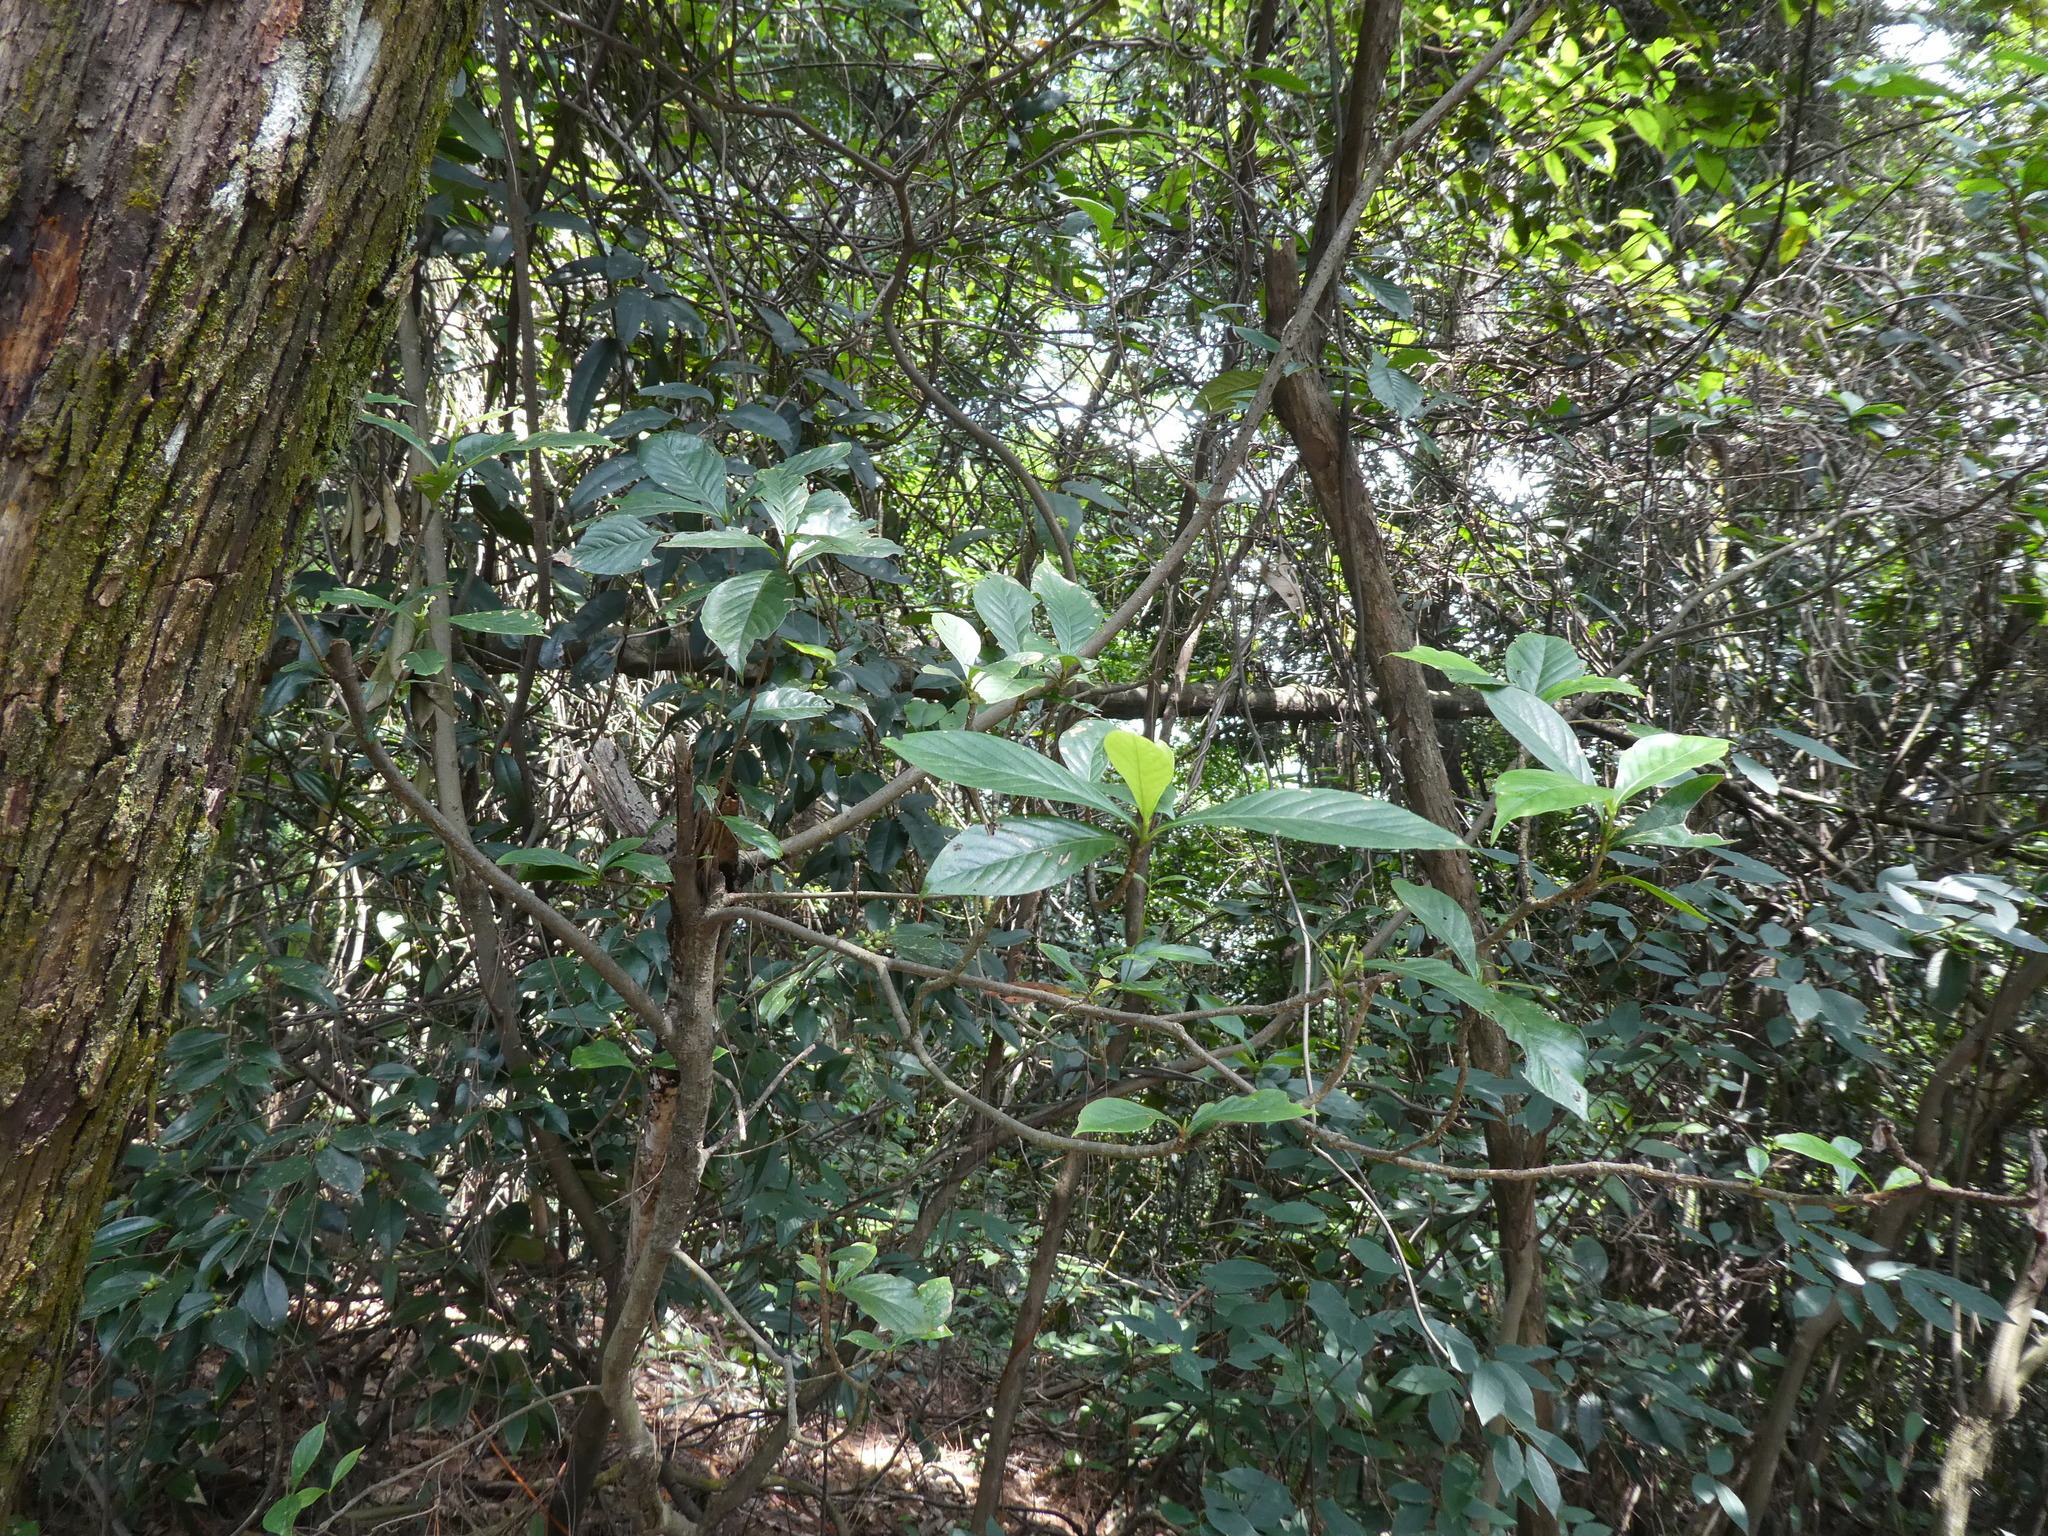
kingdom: Plantae
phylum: Tracheophyta
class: Magnoliopsida
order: Gentianales
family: Rubiaceae
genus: Gardenia
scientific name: Gardenia jasminoides
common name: Cape-jasmine
